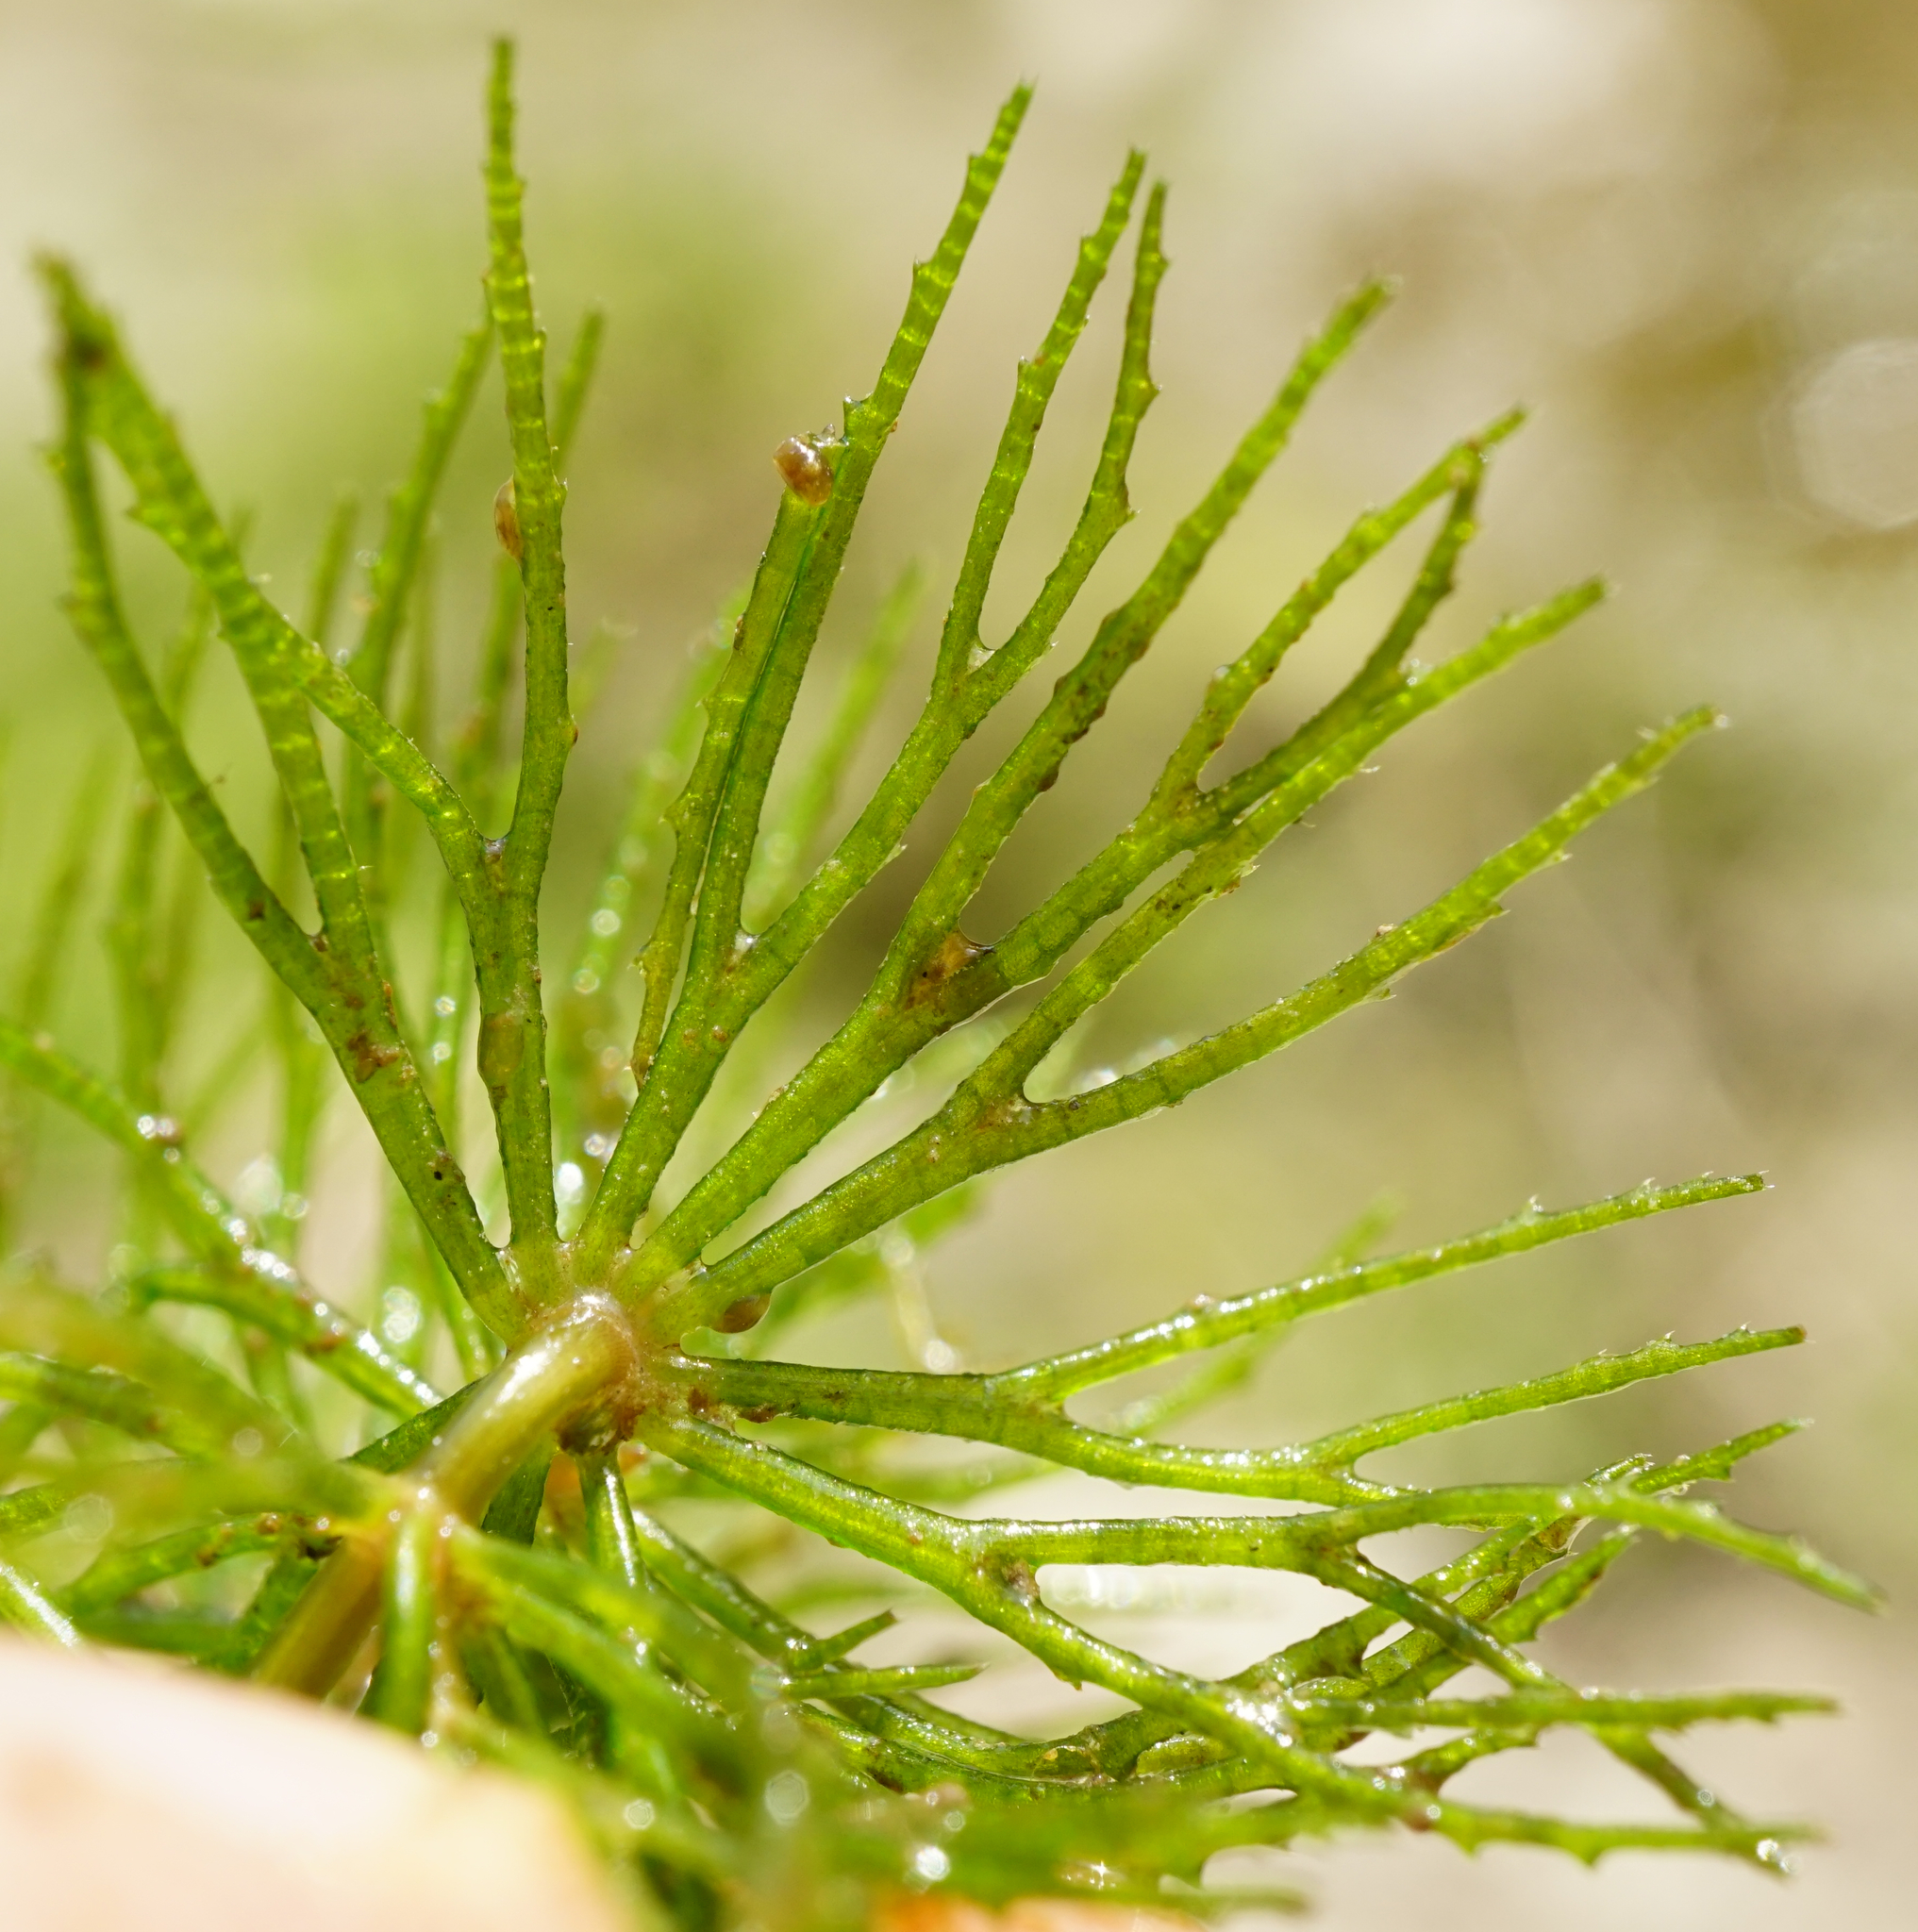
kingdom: Plantae
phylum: Tracheophyta
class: Magnoliopsida
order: Ceratophyllales
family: Ceratophyllaceae
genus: Ceratophyllum
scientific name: Ceratophyllum demersum
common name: Rigid hornwort
